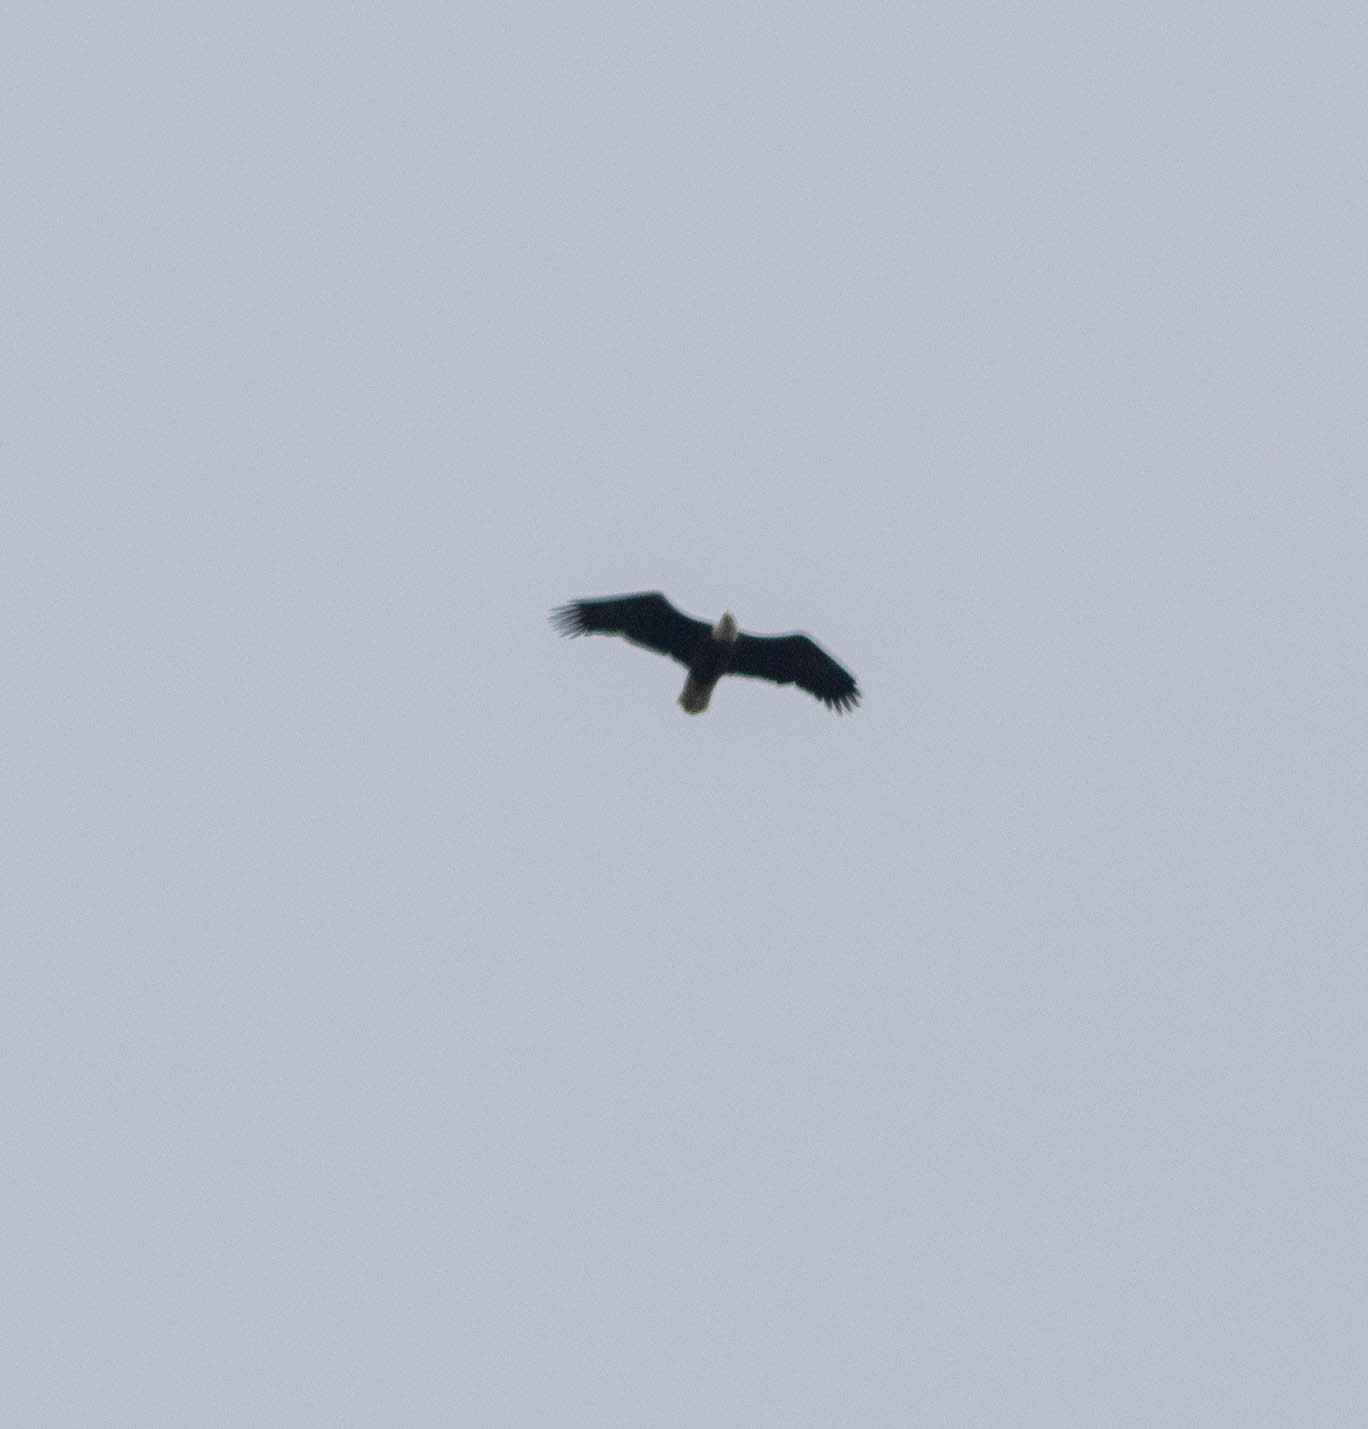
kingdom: Animalia
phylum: Chordata
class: Aves
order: Accipitriformes
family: Accipitridae
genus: Haliaeetus
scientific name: Haliaeetus leucocephalus
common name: Bald eagle
